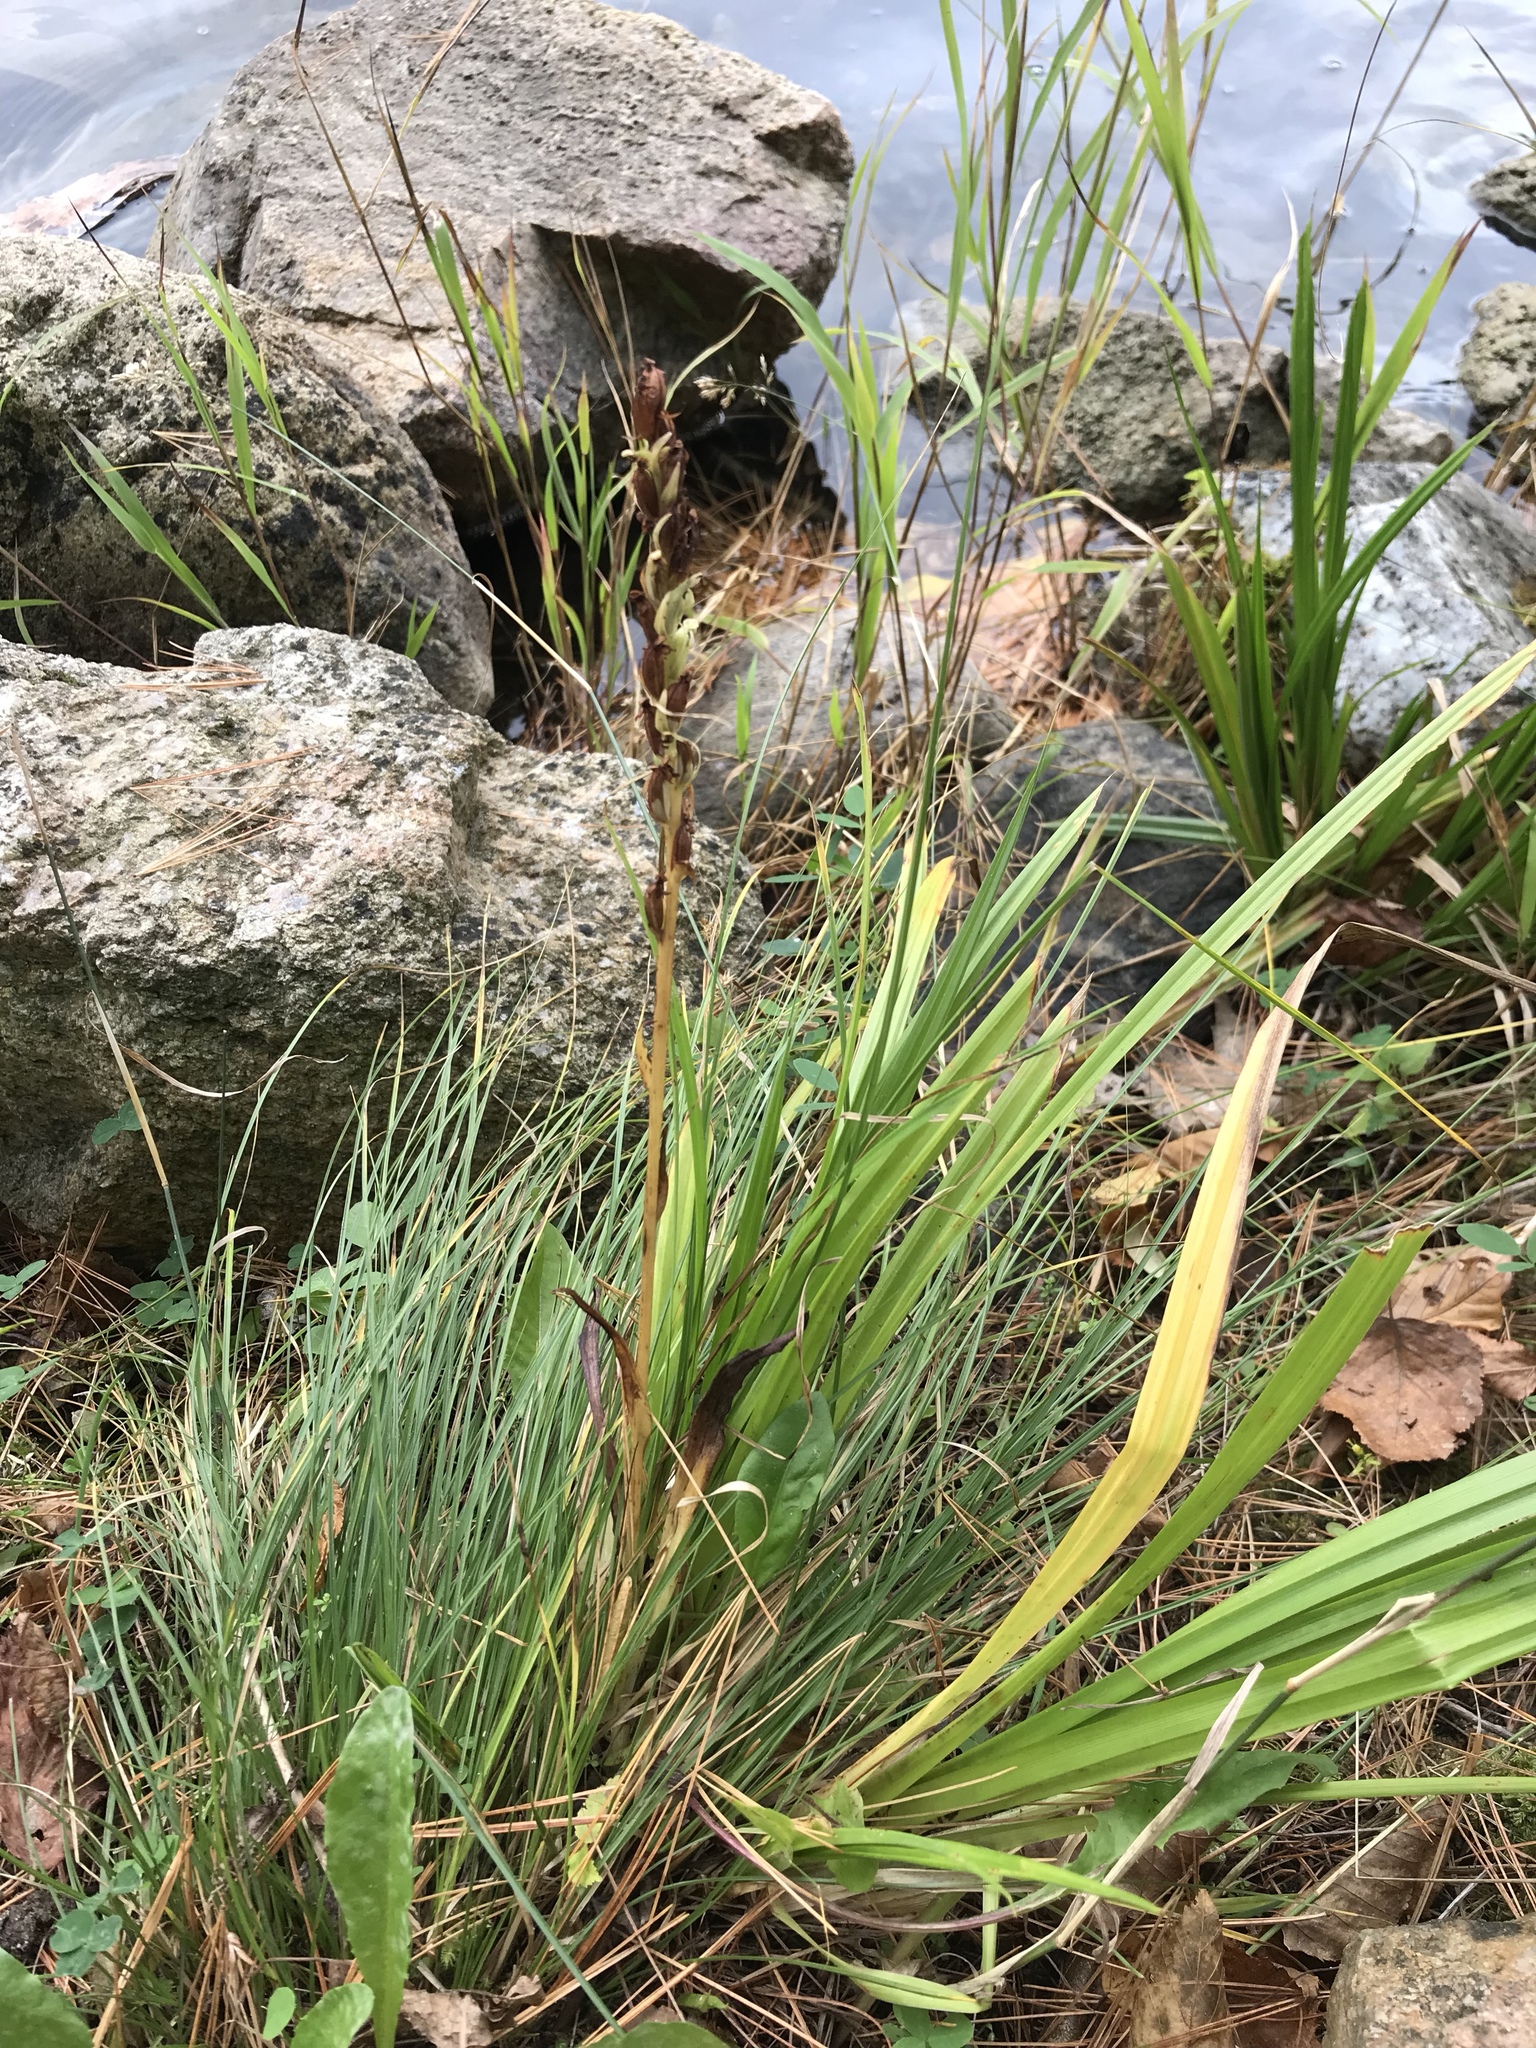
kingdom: Plantae
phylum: Tracheophyta
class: Liliopsida
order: Asparagales
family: Orchidaceae
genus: Platanthera
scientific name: Platanthera
